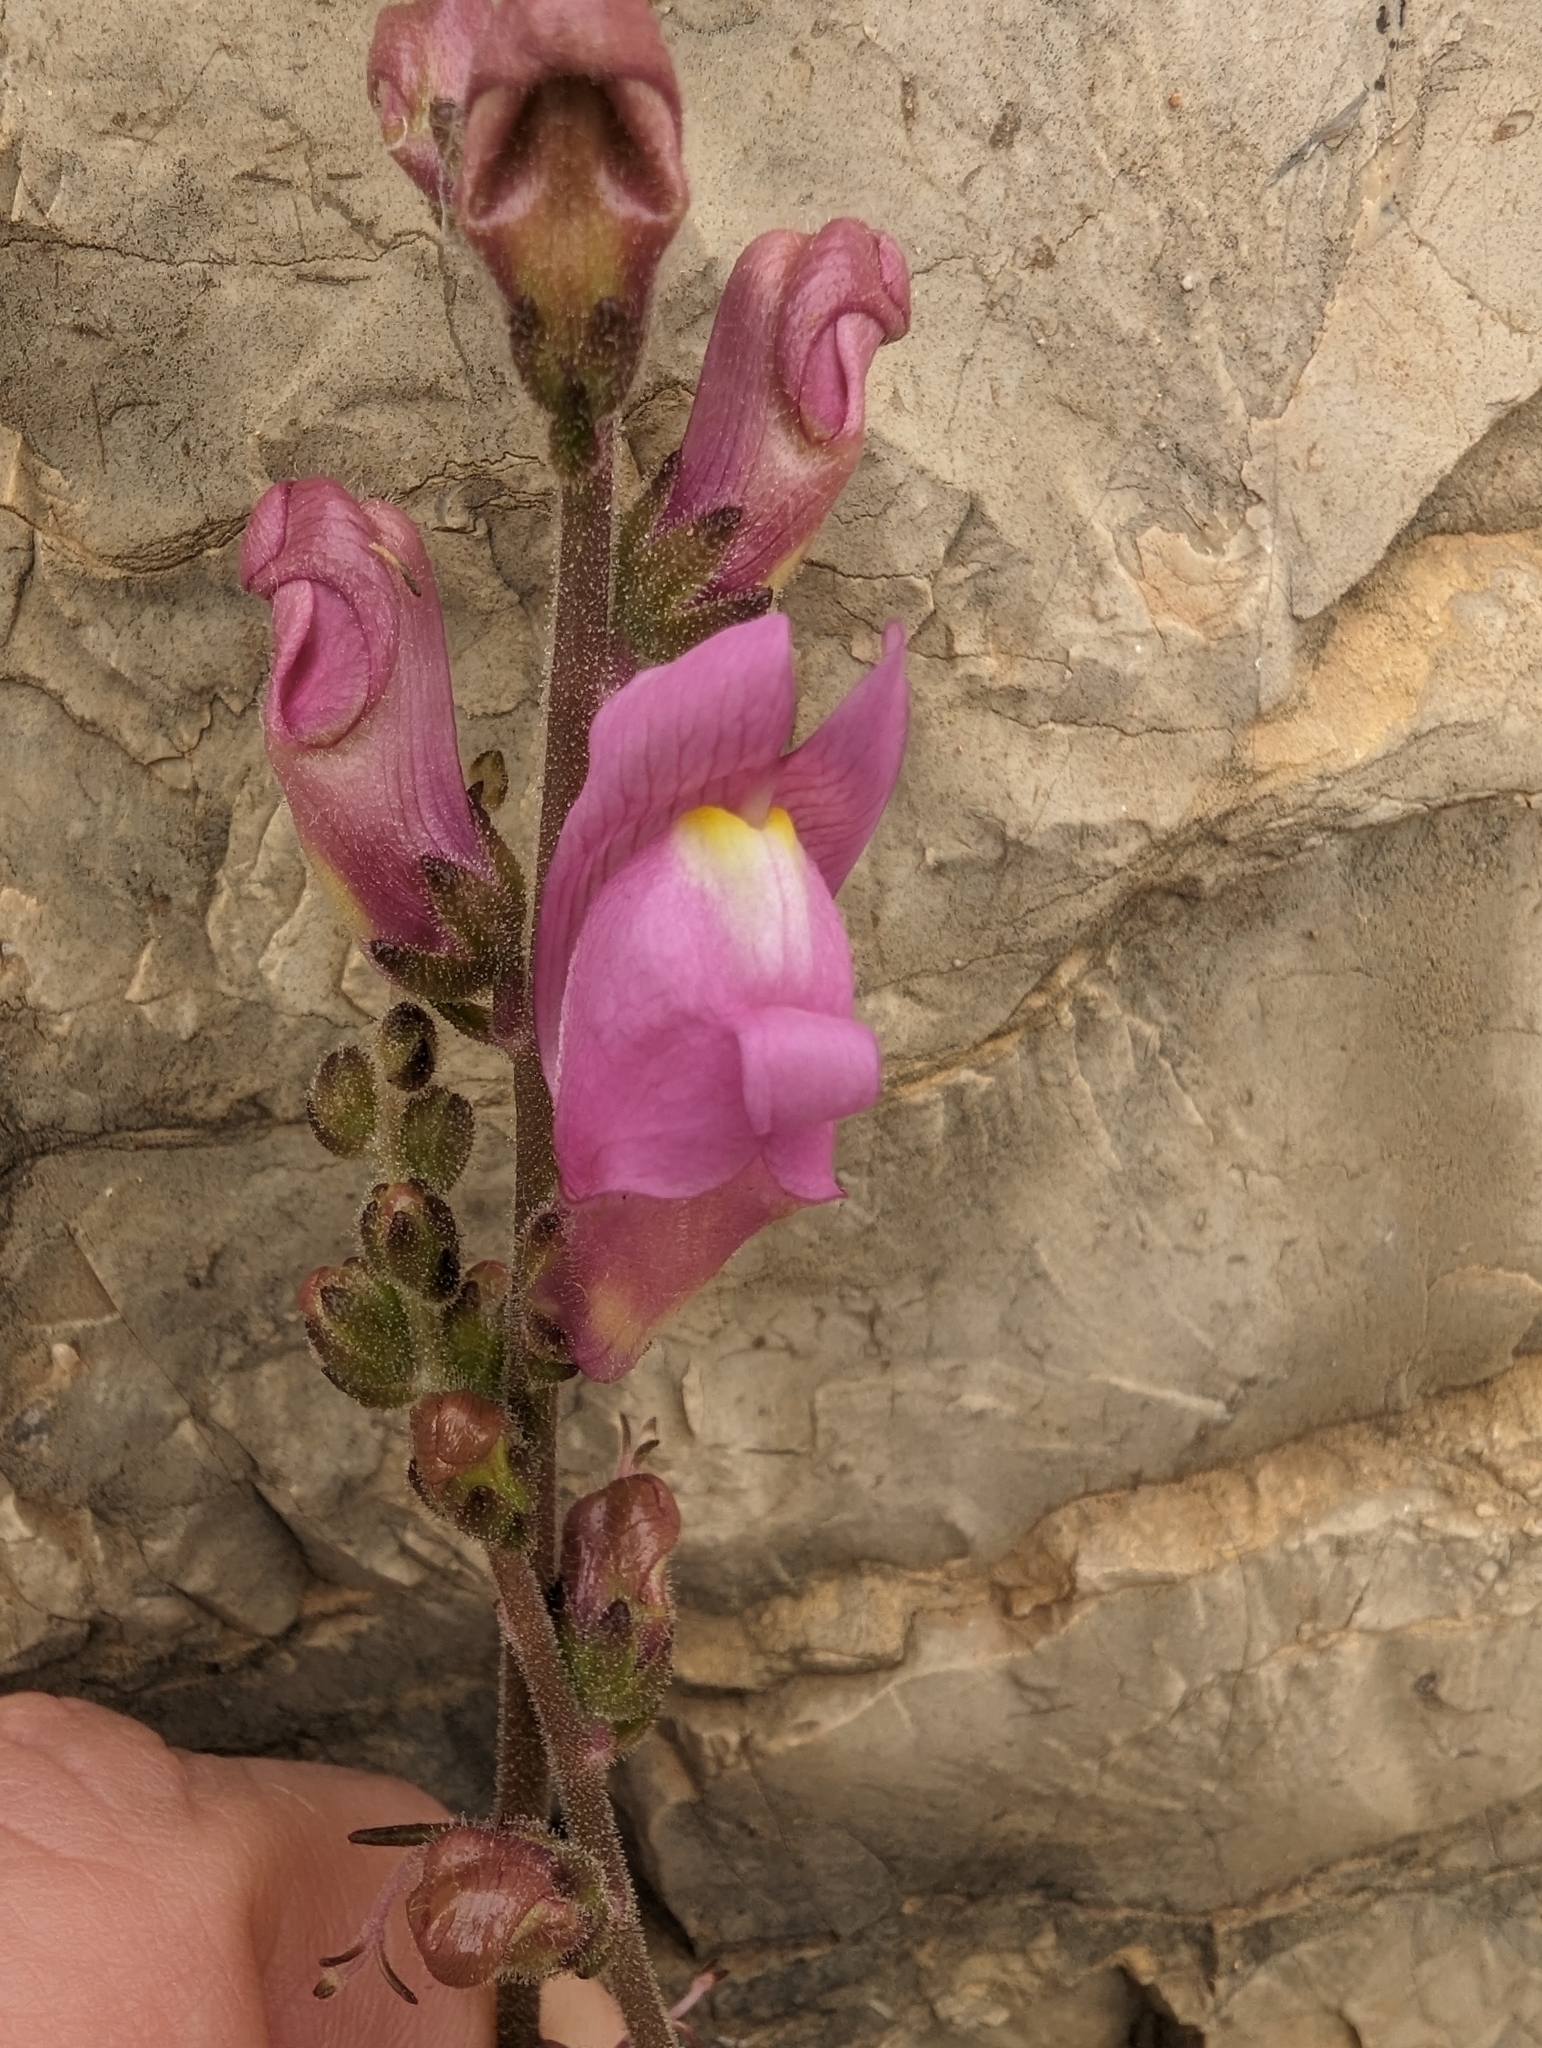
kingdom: Plantae
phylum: Tracheophyta
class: Magnoliopsida
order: Lamiales
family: Plantaginaceae
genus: Antirrhinum
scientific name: Antirrhinum litigiosum
